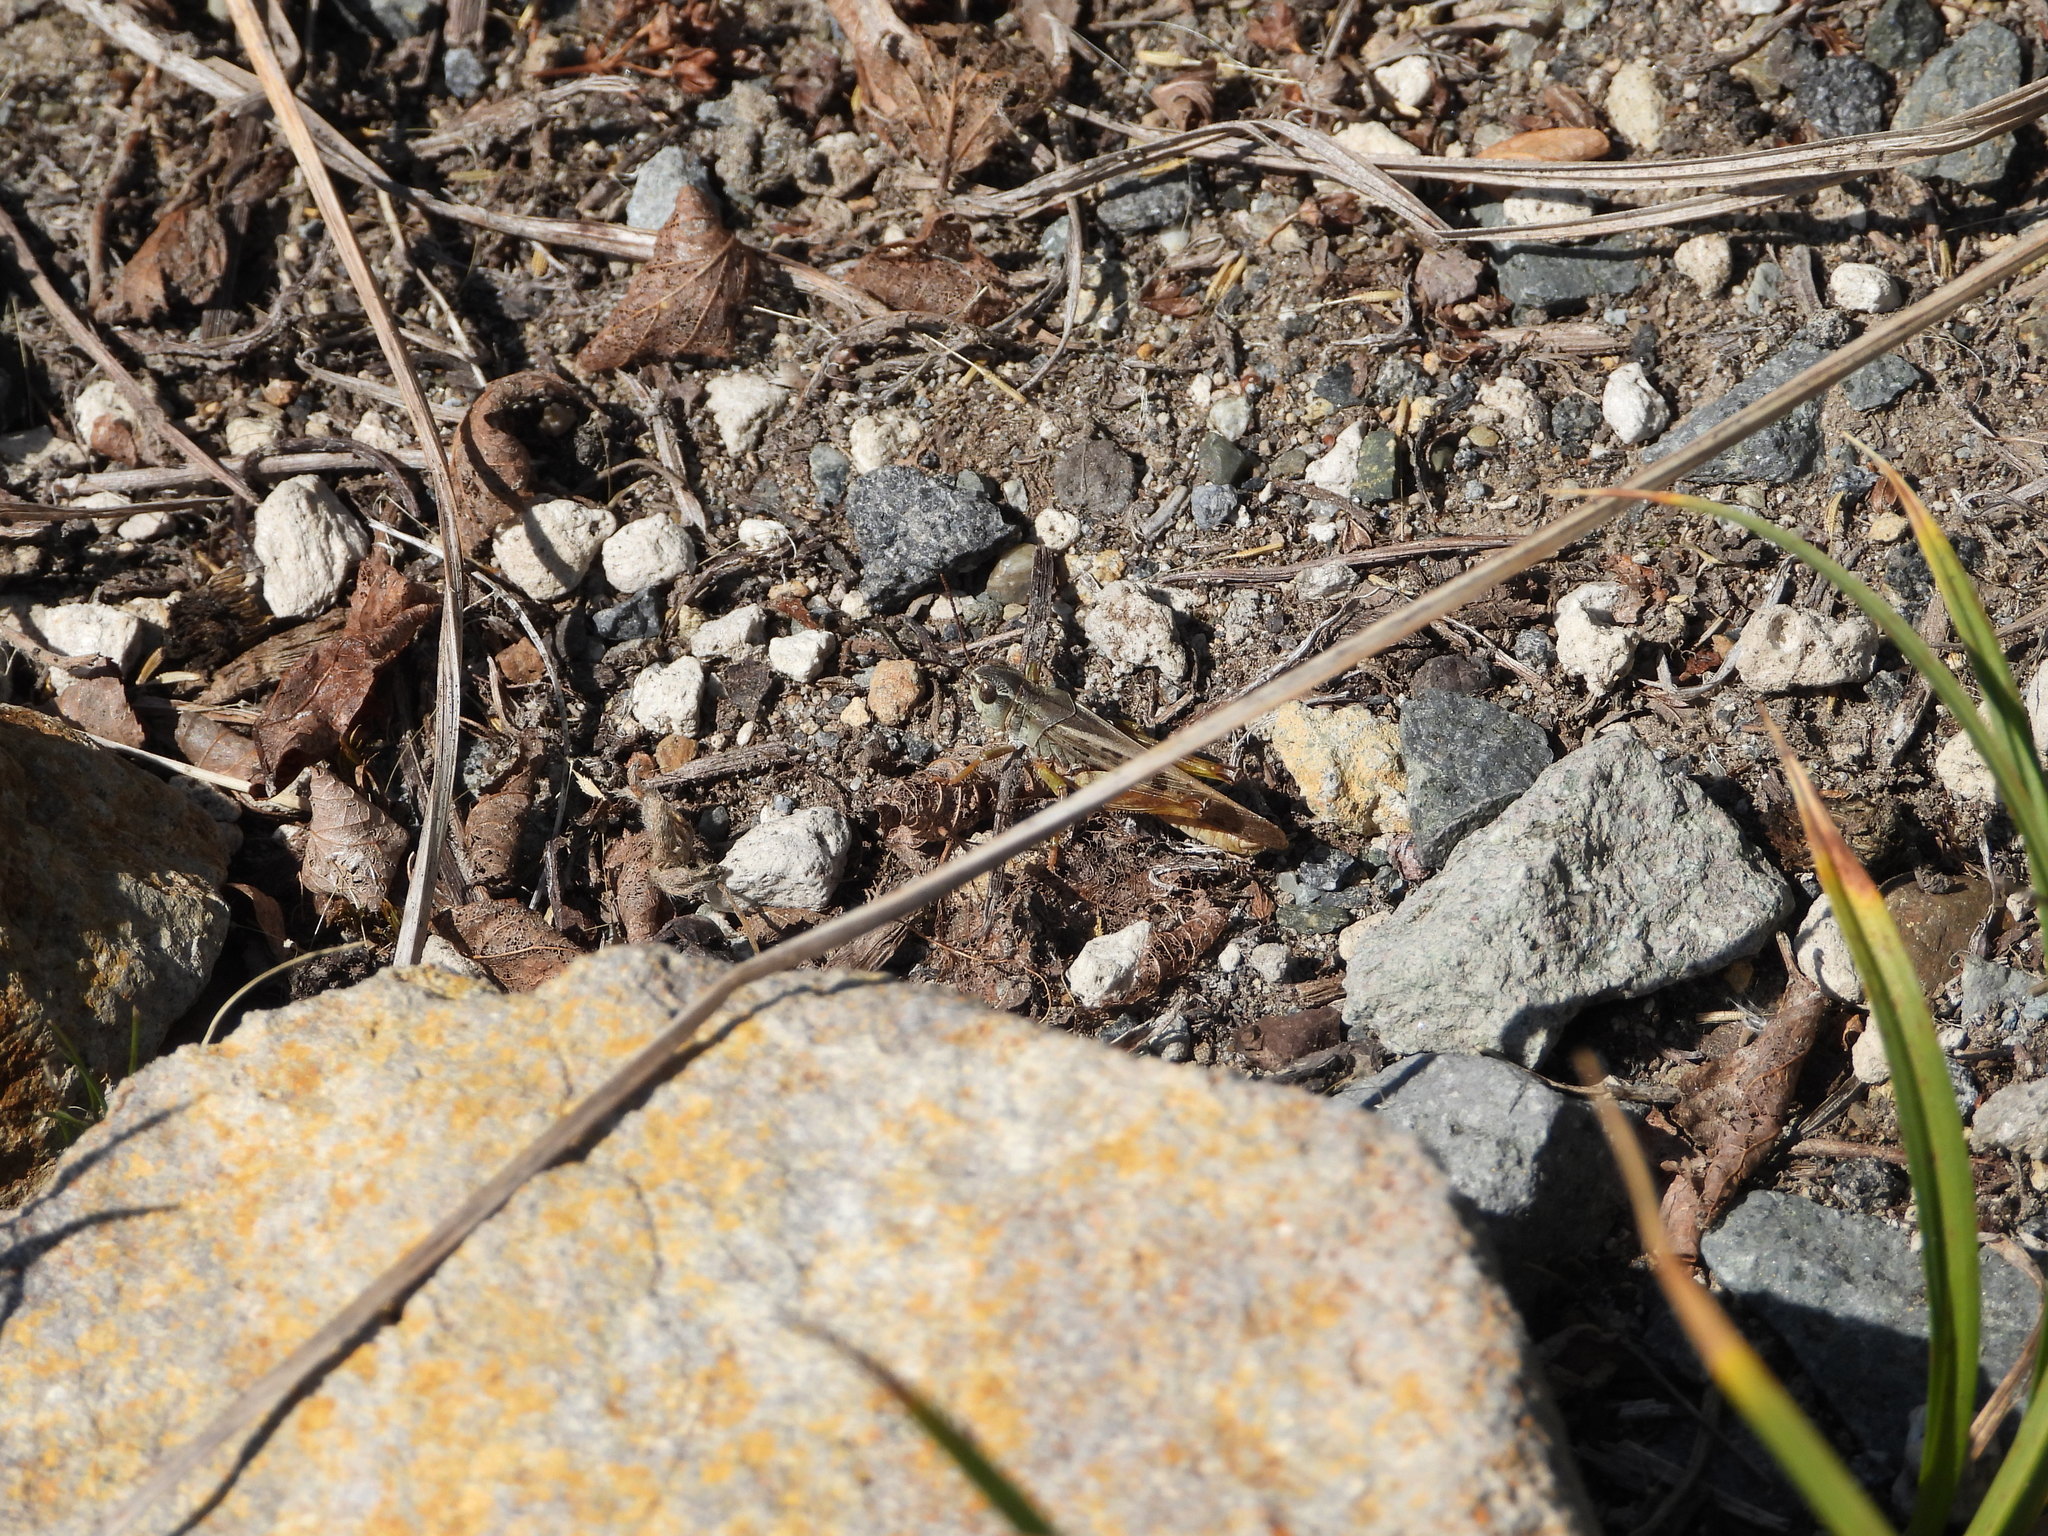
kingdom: Animalia
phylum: Arthropoda
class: Insecta
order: Orthoptera
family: Acrididae
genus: Camnula
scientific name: Camnula pellucida
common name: Clear-winged grasshopper
